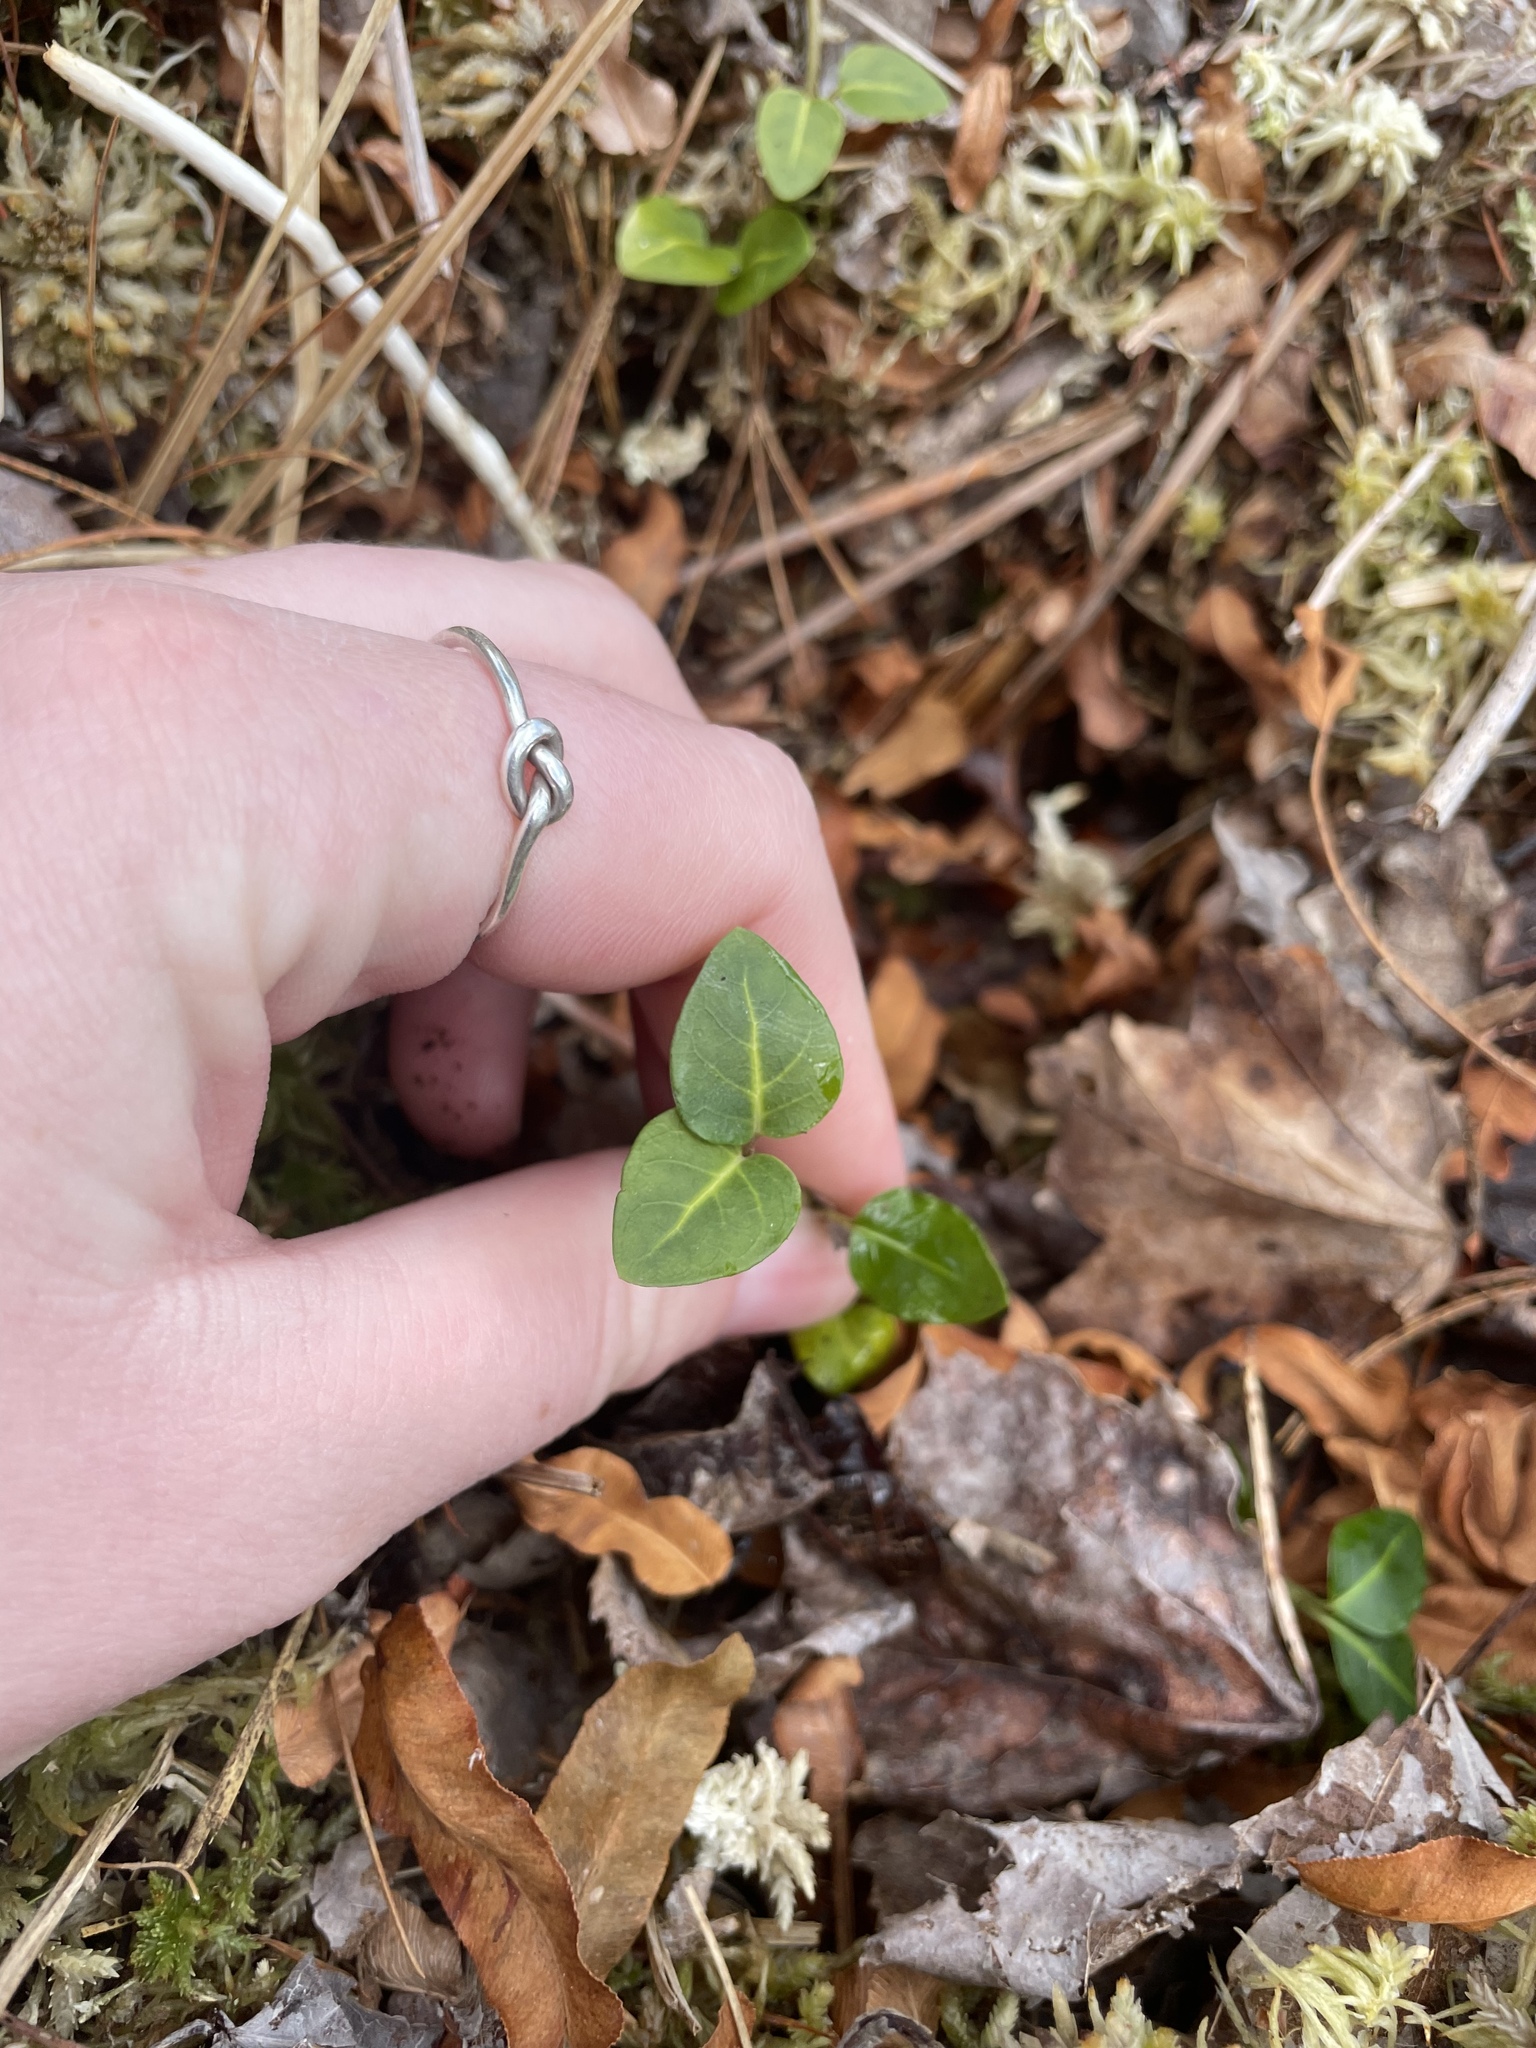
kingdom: Plantae
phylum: Tracheophyta
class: Magnoliopsida
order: Gentianales
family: Rubiaceae
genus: Mitchella
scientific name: Mitchella repens
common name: Partridge-berry
